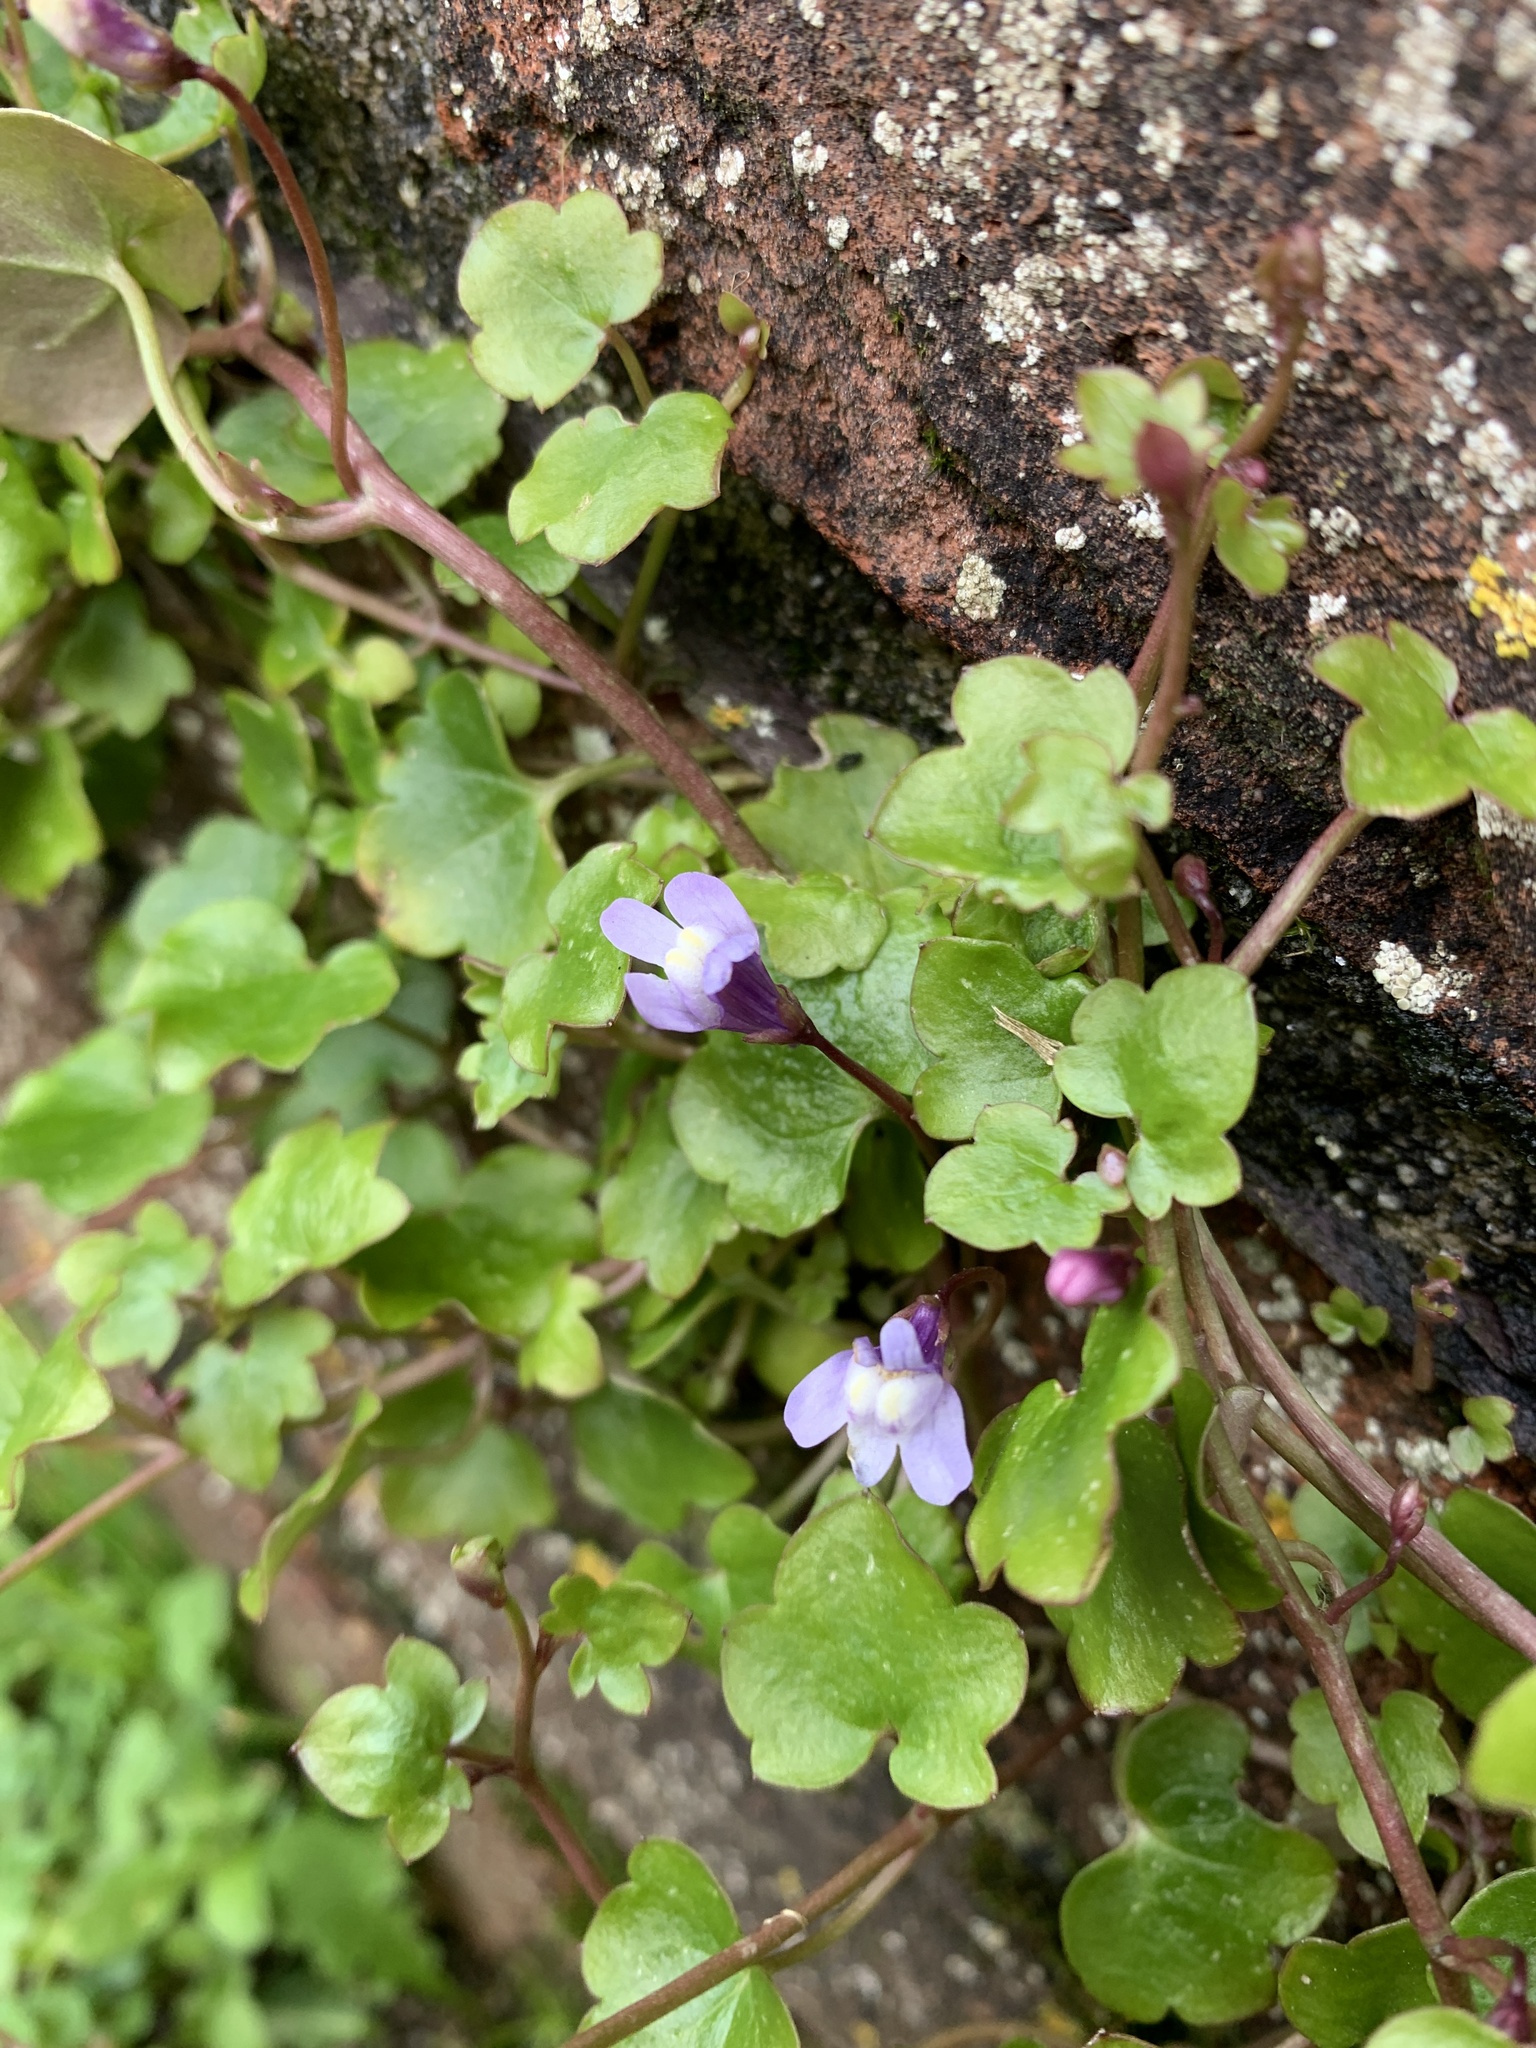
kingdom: Plantae
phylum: Tracheophyta
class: Magnoliopsida
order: Lamiales
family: Plantaginaceae
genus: Cymbalaria
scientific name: Cymbalaria muralis
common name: Ivy-leaved toadflax
